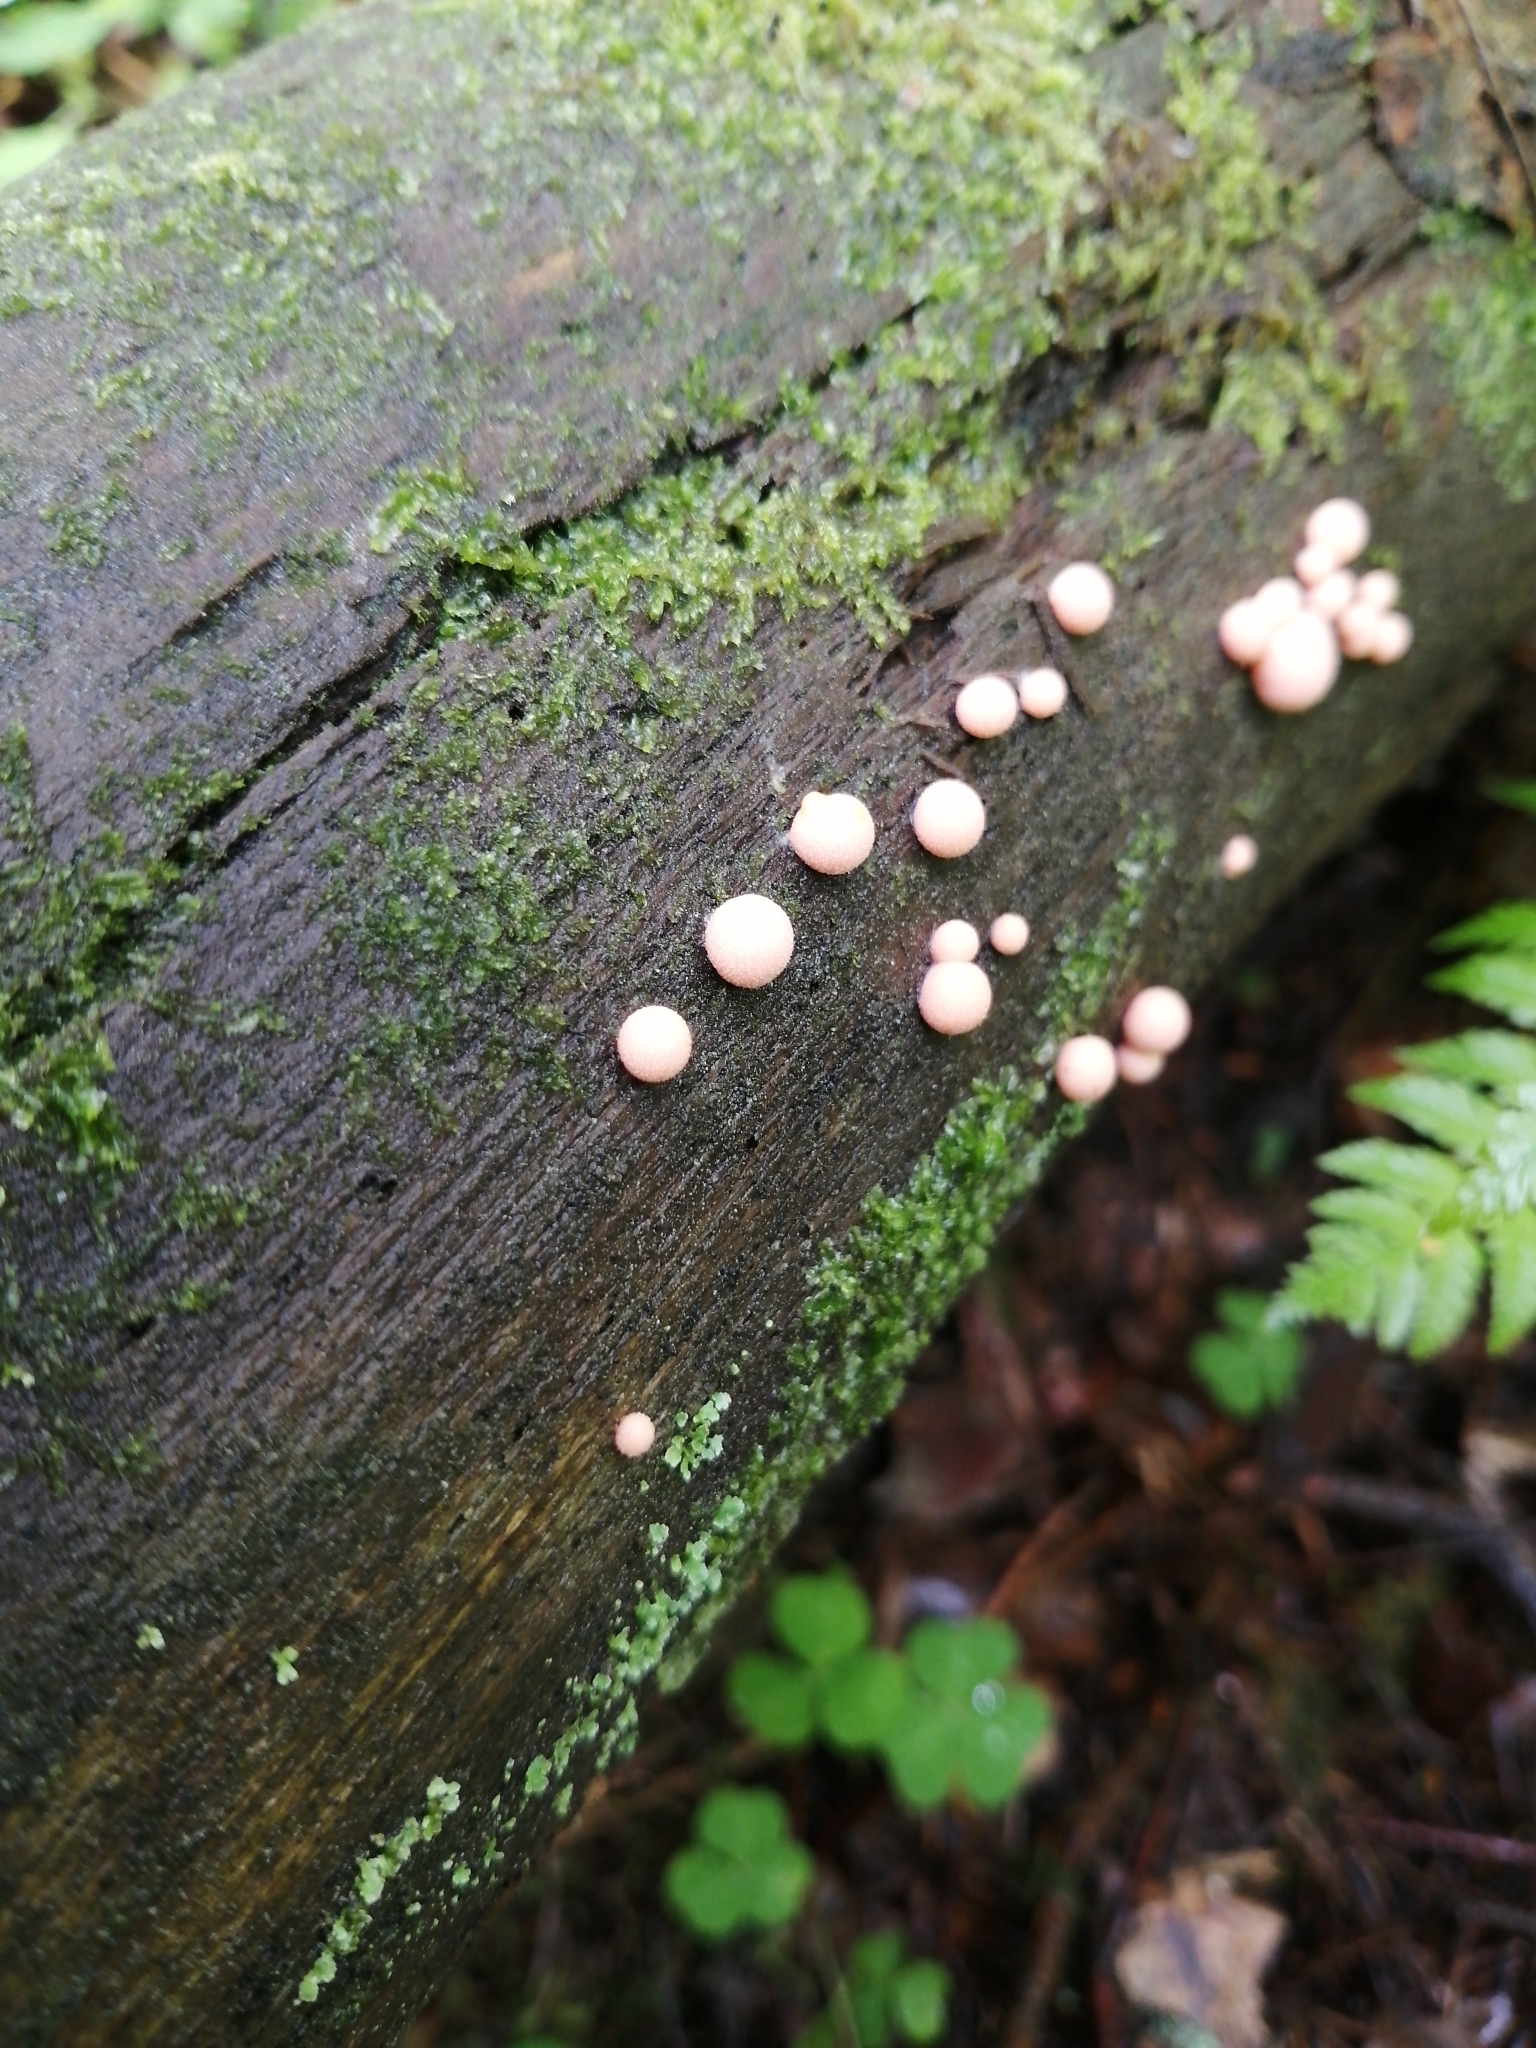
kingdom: Protozoa
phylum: Mycetozoa
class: Myxomycetes
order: Cribrariales
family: Tubiferaceae
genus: Lycogala
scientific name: Lycogala epidendrum
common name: Wolf's milk
